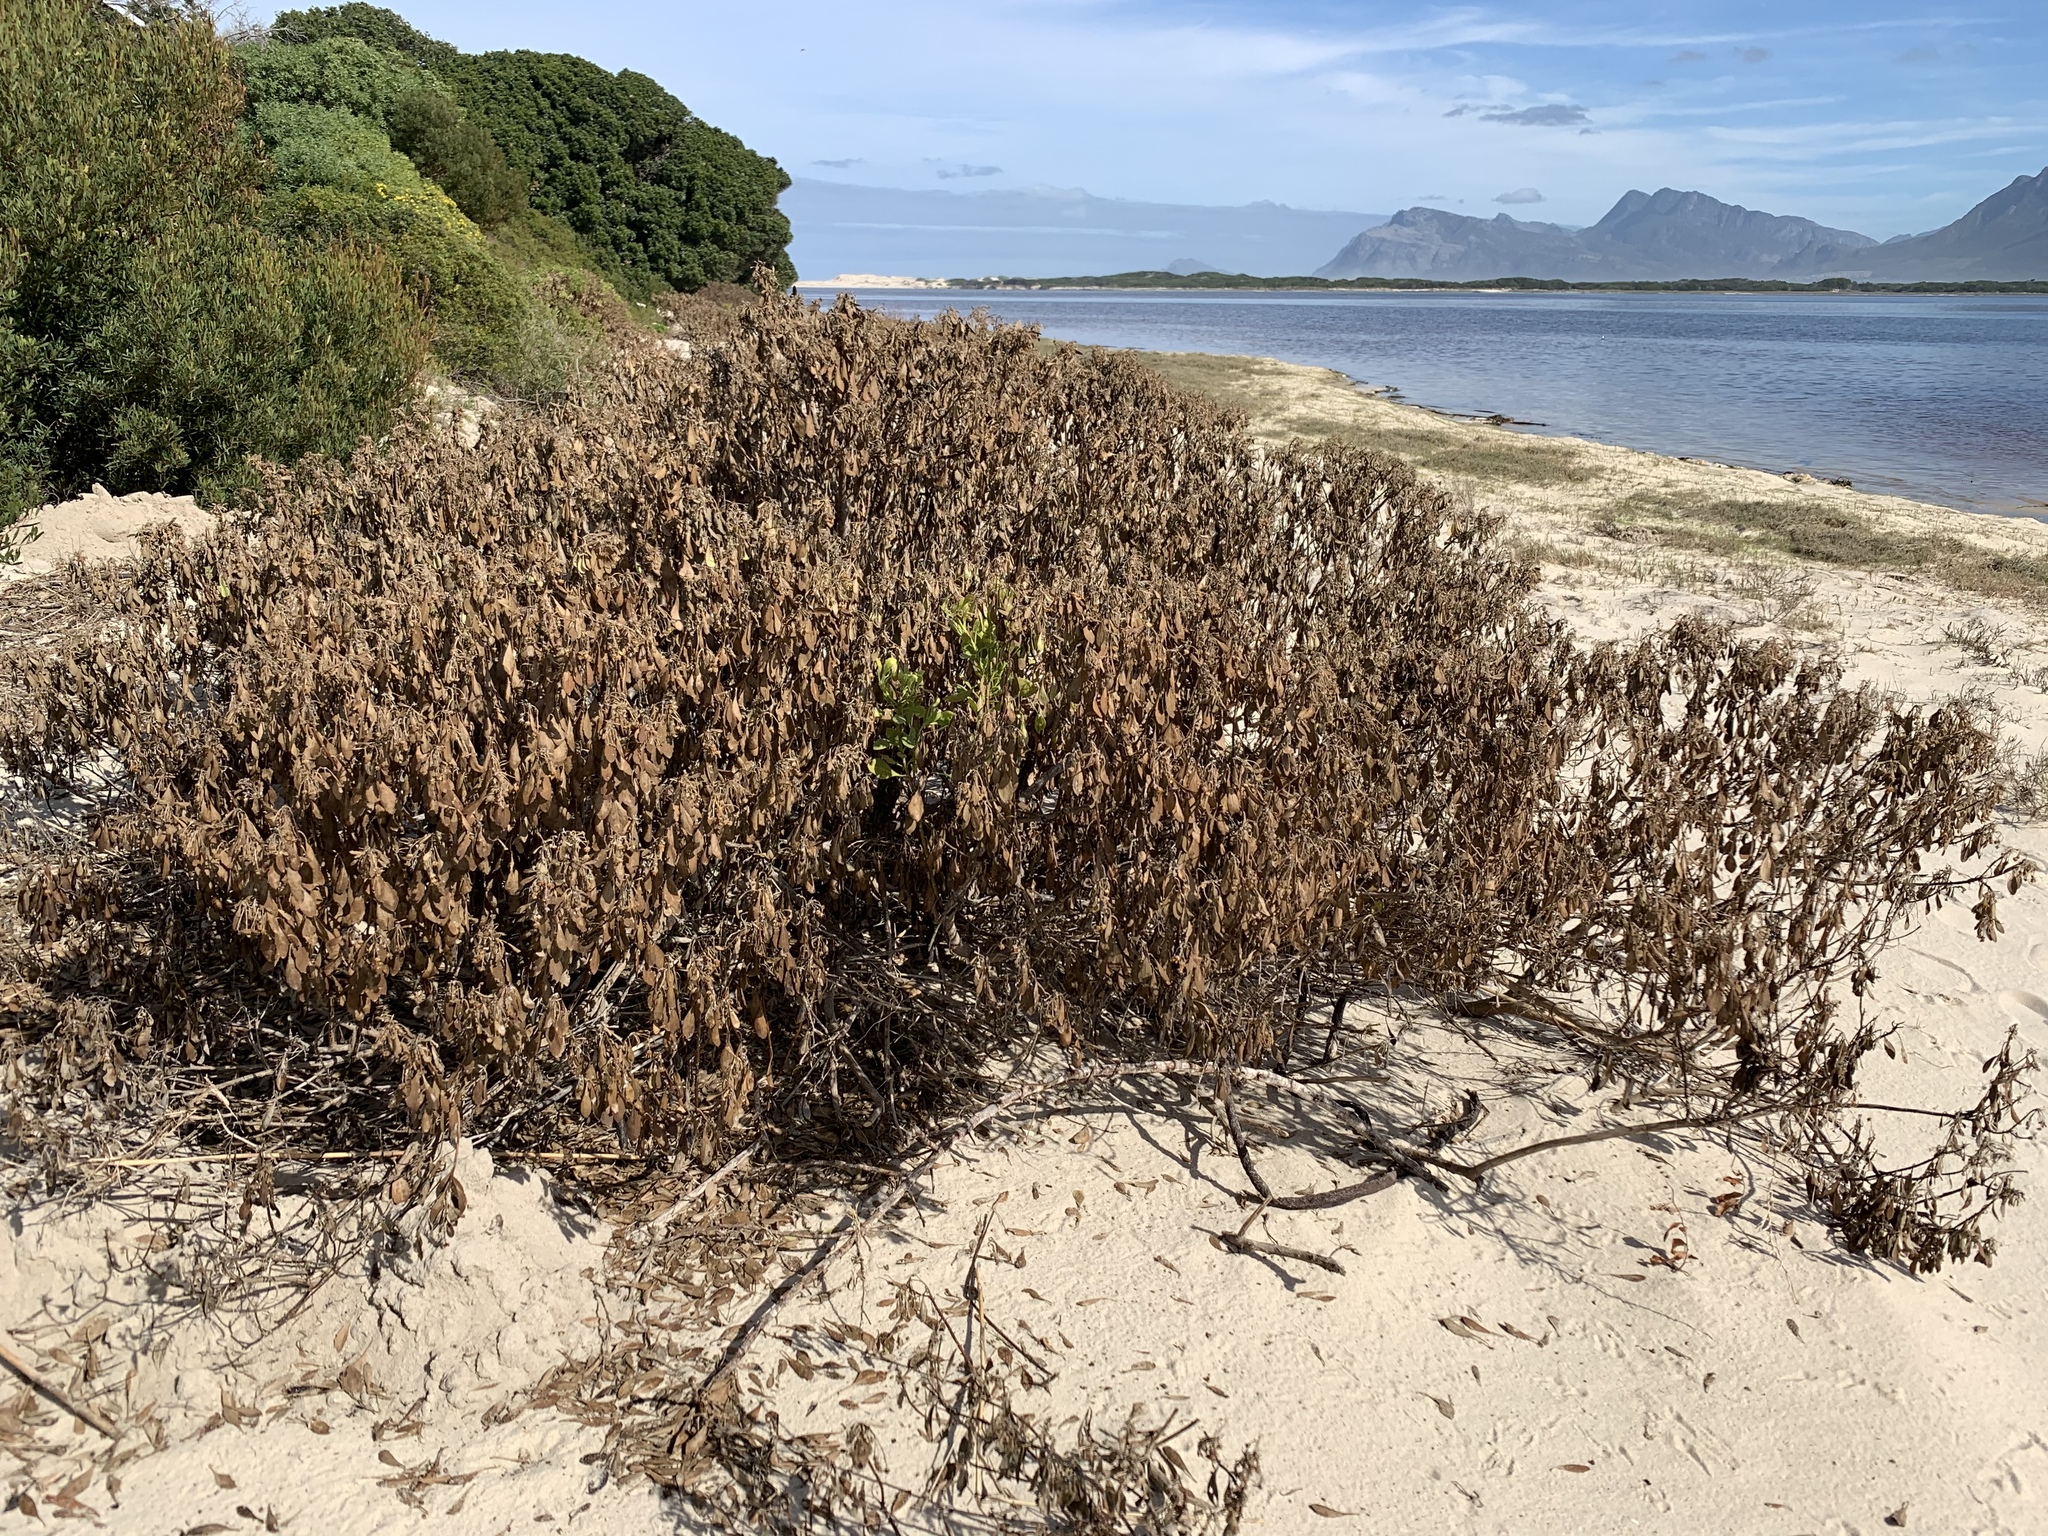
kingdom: Plantae
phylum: Tracheophyta
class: Magnoliopsida
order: Asterales
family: Asteraceae
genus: Osteospermum
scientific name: Osteospermum moniliferum
